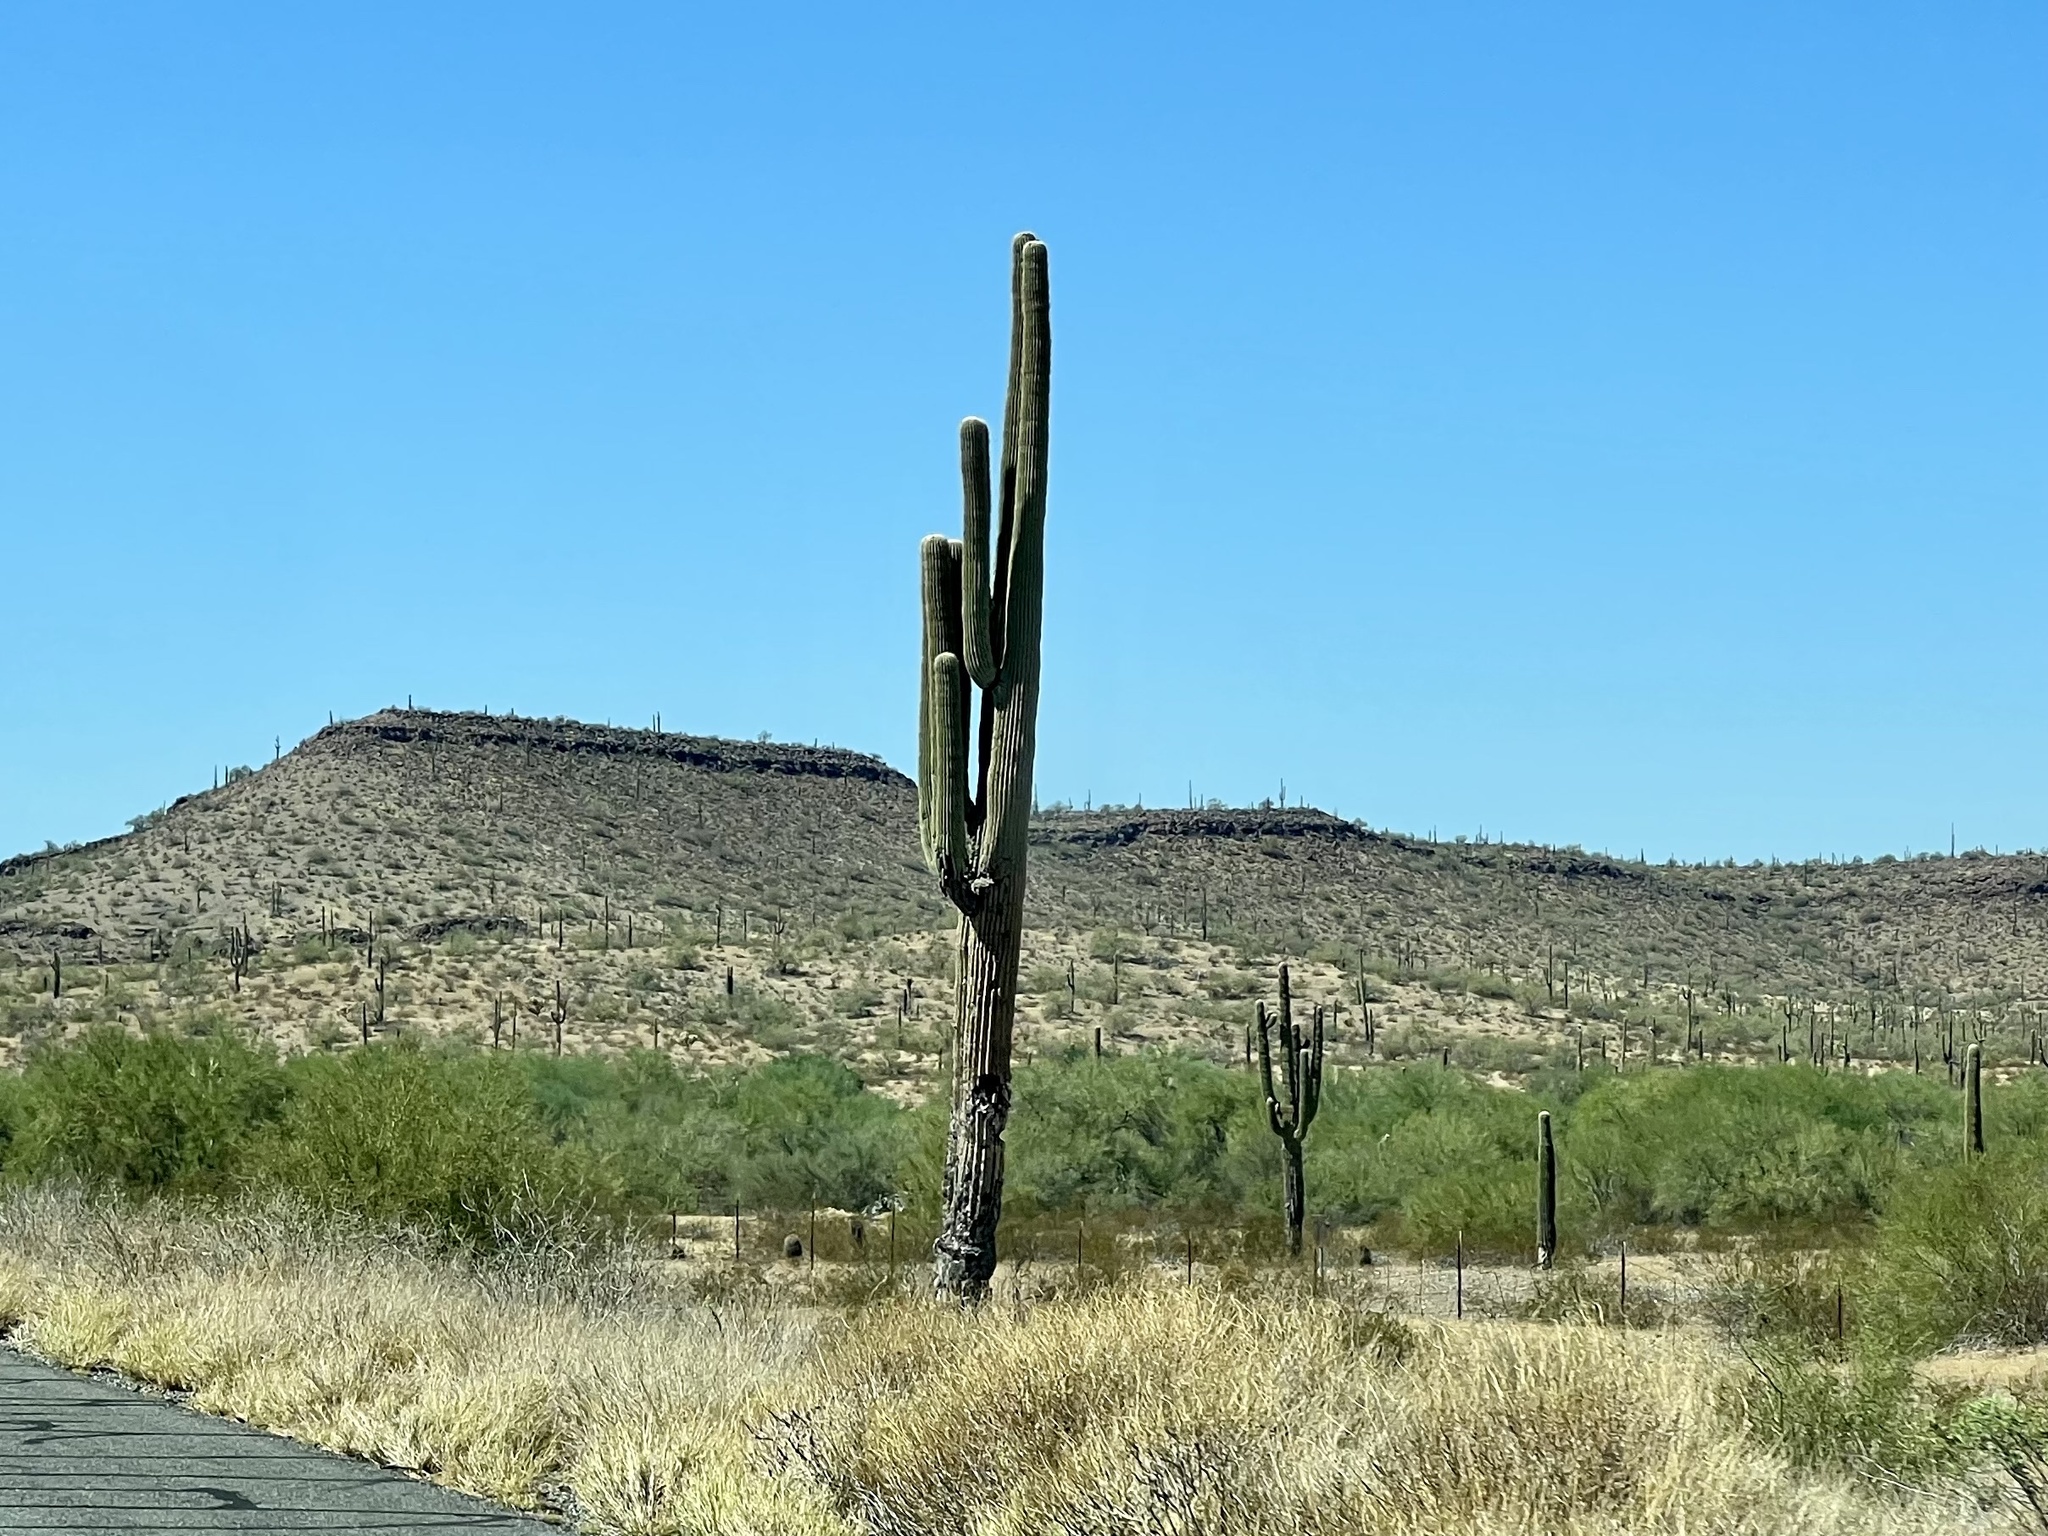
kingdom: Plantae
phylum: Tracheophyta
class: Magnoliopsida
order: Caryophyllales
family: Cactaceae
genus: Carnegiea
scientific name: Carnegiea gigantea
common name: Saguaro
